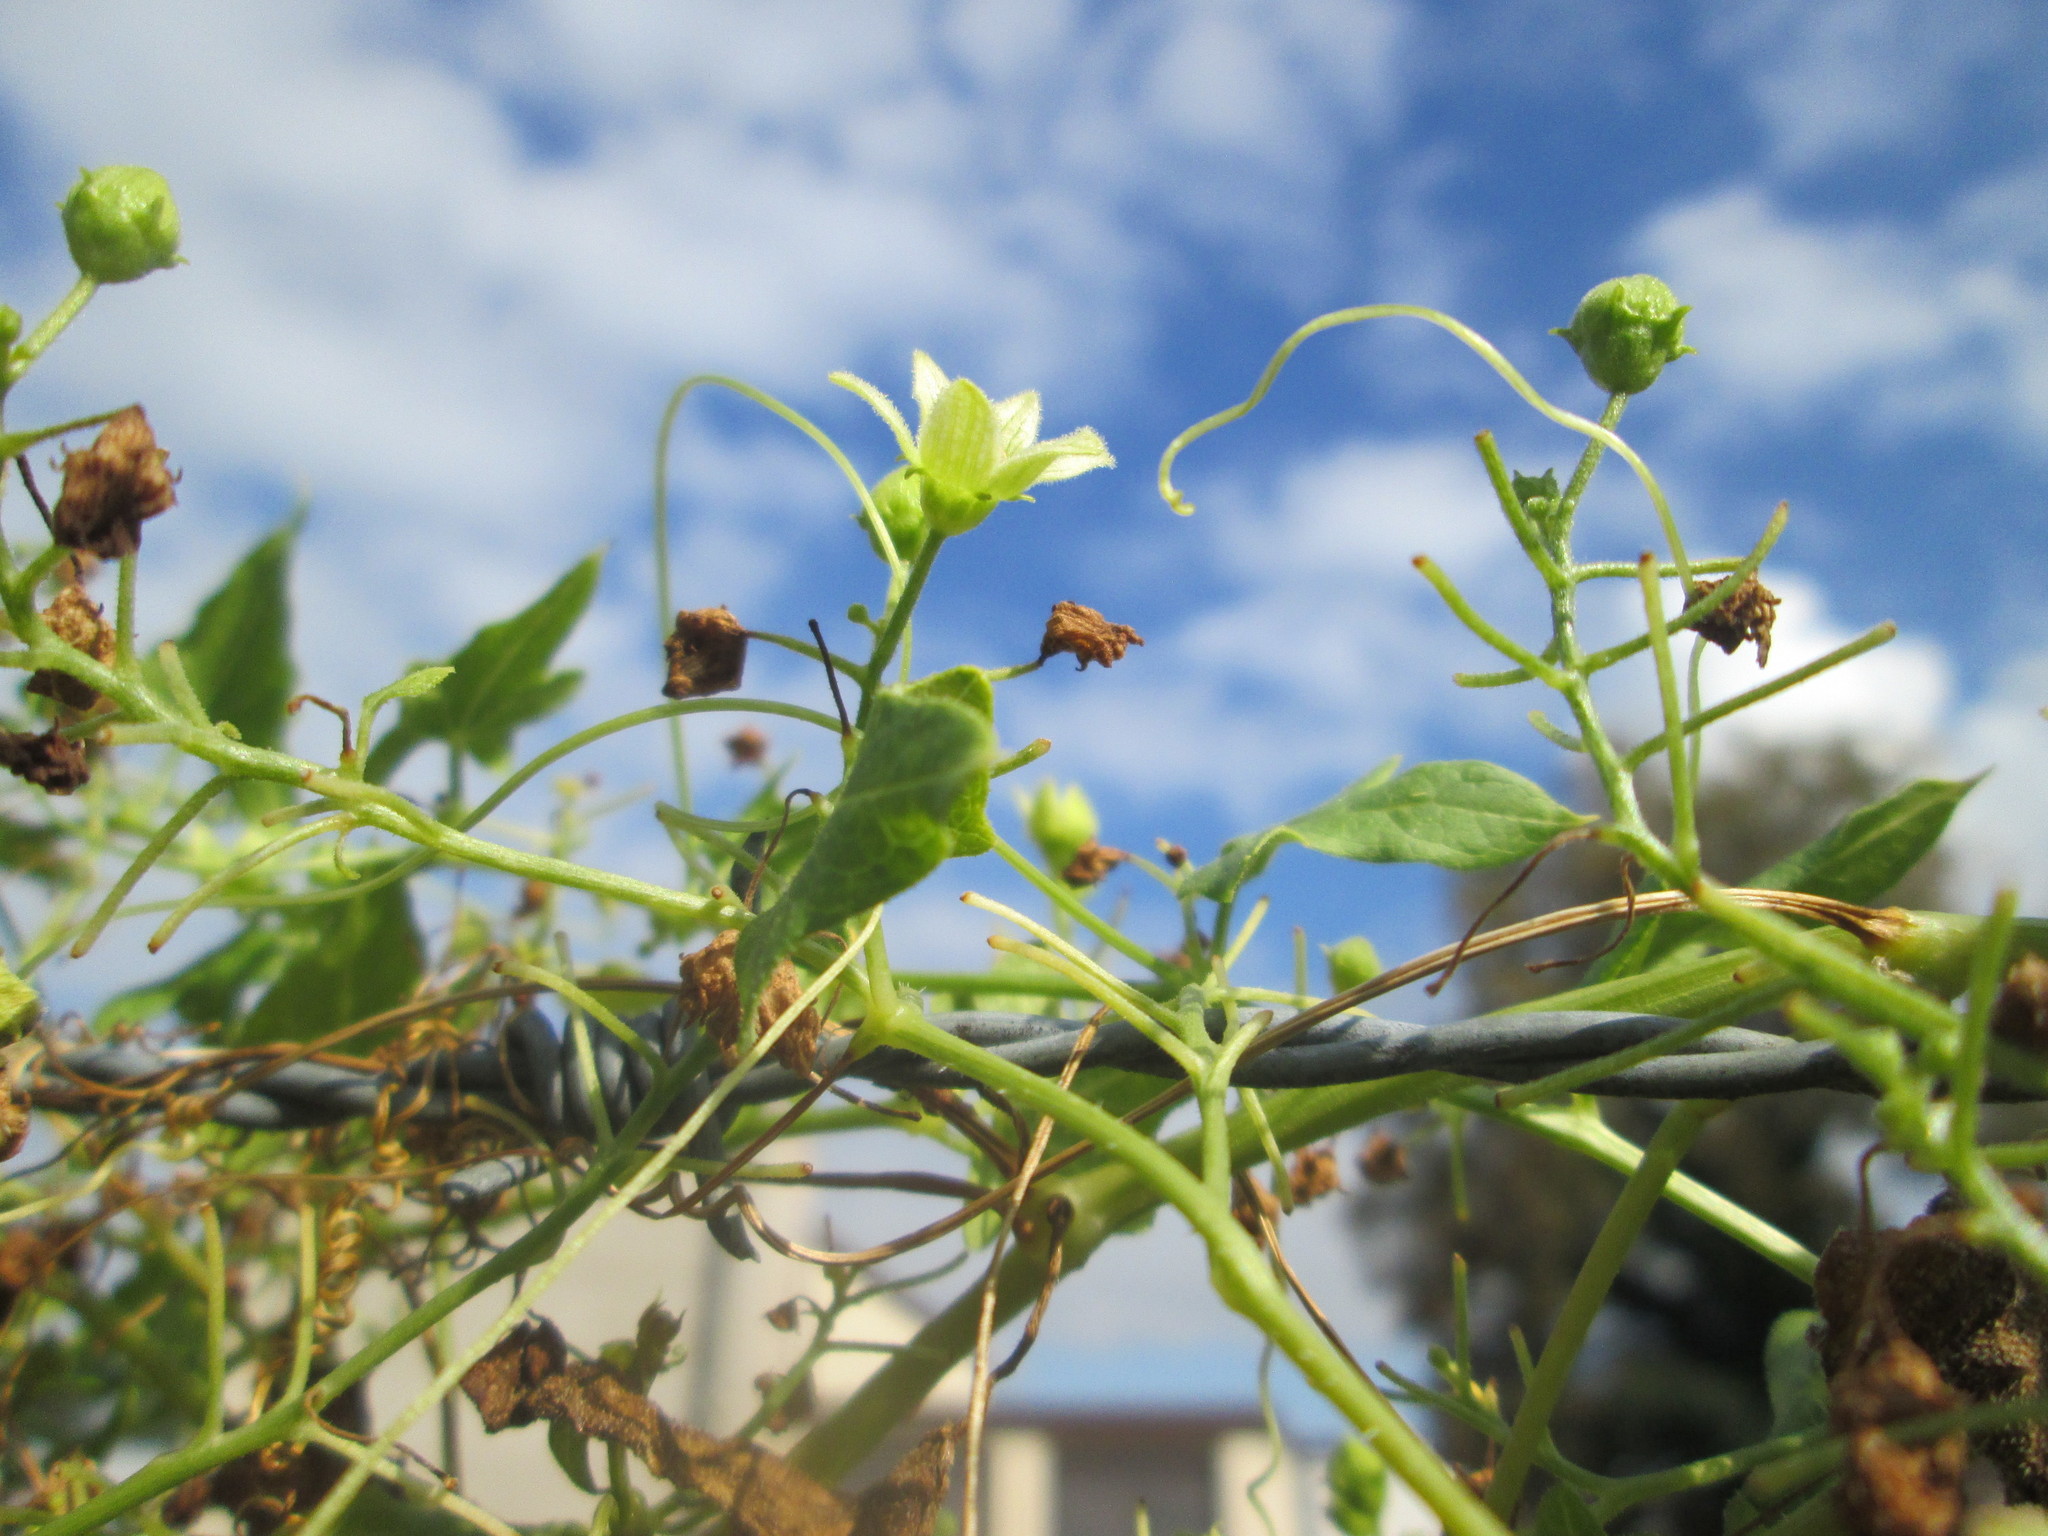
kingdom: Plantae
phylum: Tracheophyta
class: Magnoliopsida
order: Cucurbitales
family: Cucurbitaceae
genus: Bryonia
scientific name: Bryonia dioica
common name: White bryony
